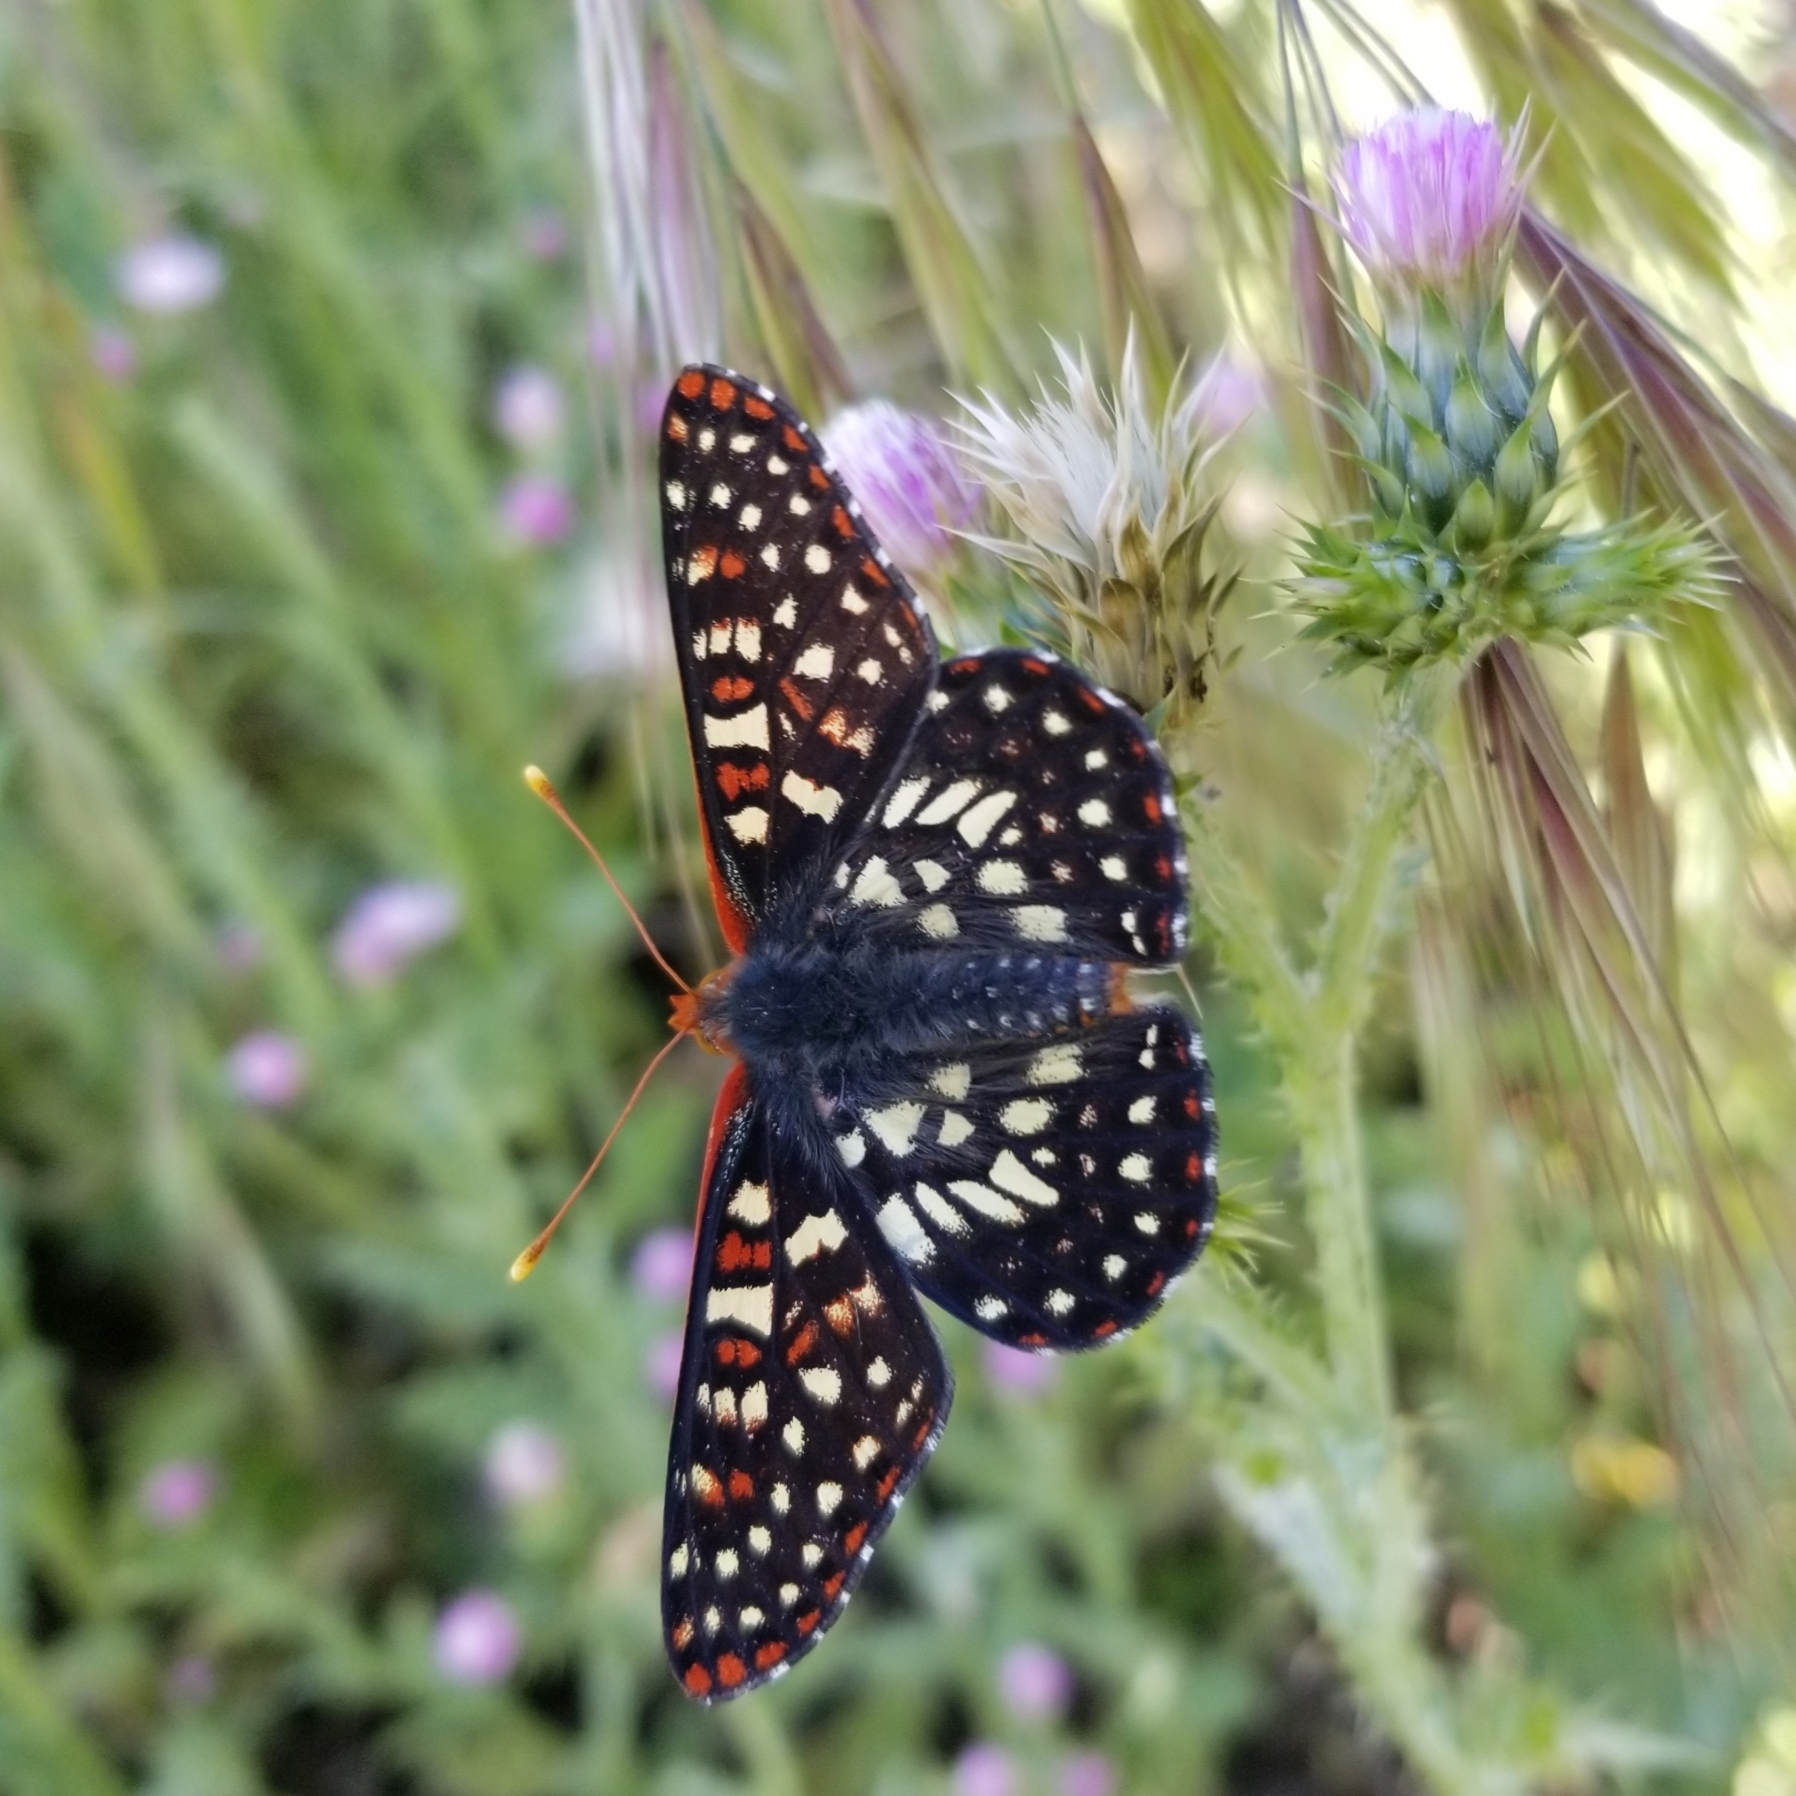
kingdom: Animalia
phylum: Arthropoda
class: Insecta
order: Lepidoptera
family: Nymphalidae
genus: Occidryas
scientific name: Occidryas chalcedona
